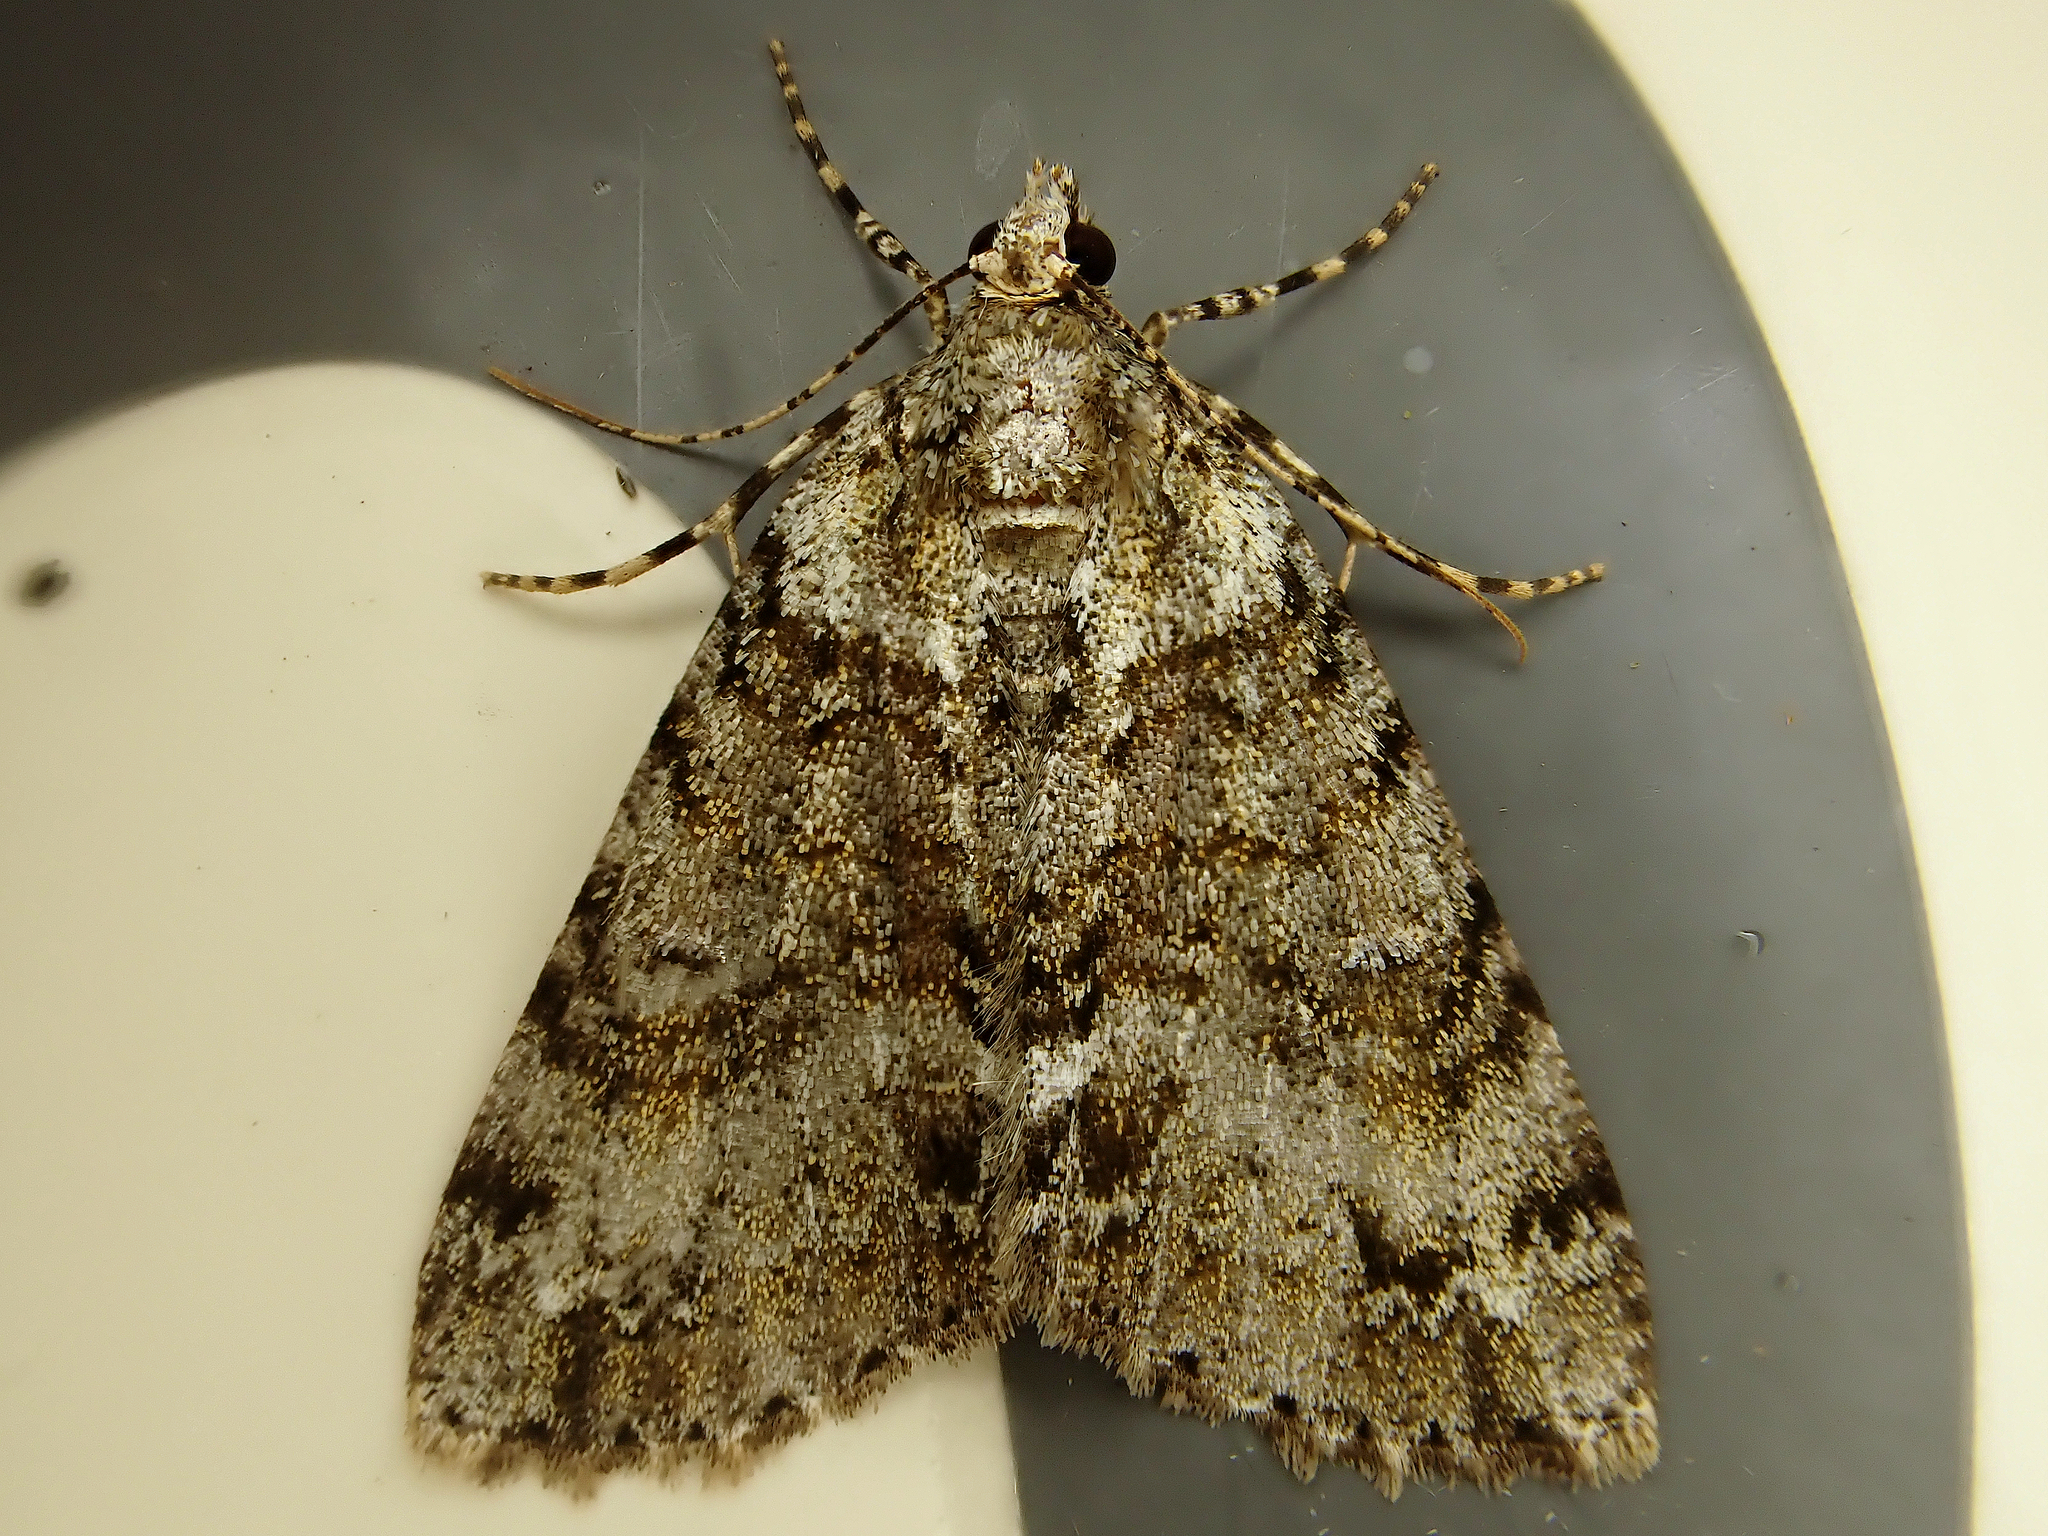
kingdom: Animalia
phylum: Arthropoda
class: Insecta
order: Lepidoptera
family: Geometridae
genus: Pseudocoremia
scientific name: Pseudocoremia suavis
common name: Common forest looper
